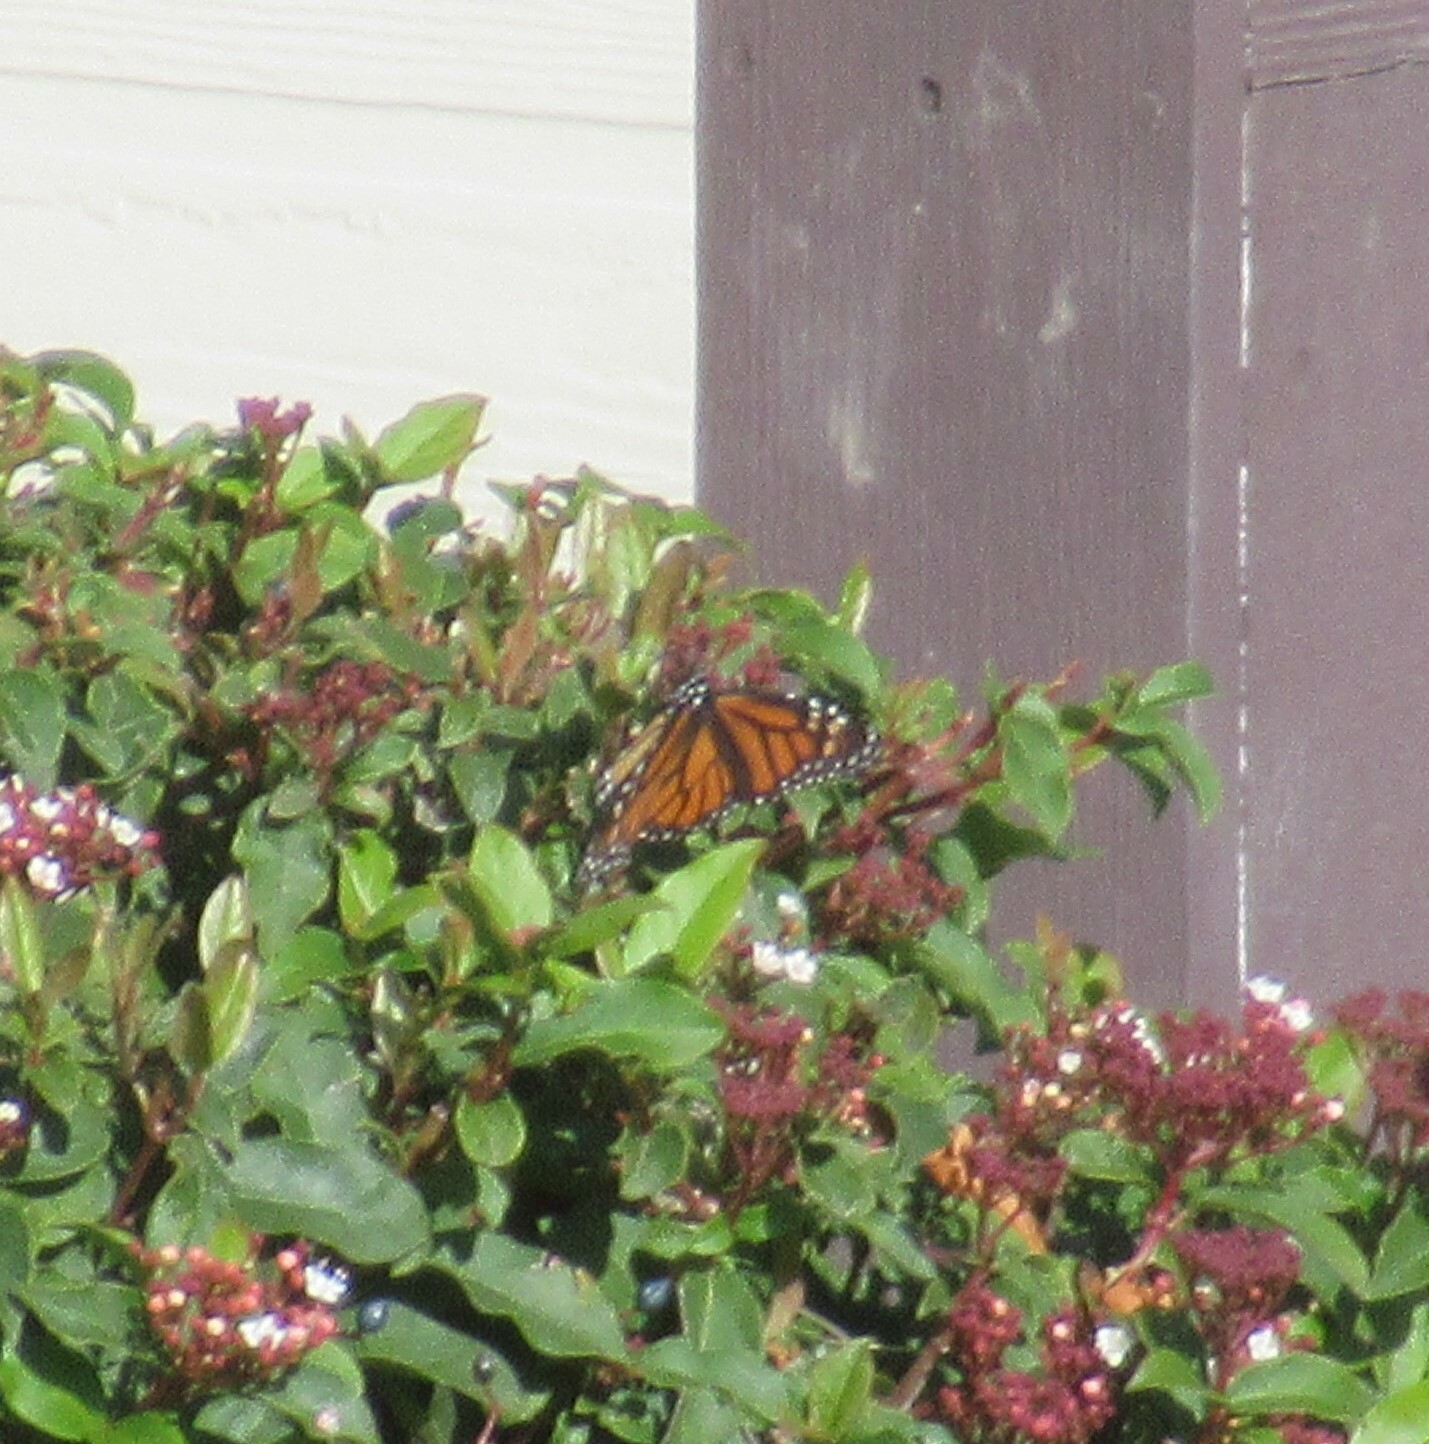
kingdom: Animalia
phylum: Arthropoda
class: Insecta
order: Lepidoptera
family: Nymphalidae
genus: Danaus
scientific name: Danaus plexippus
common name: Monarch
